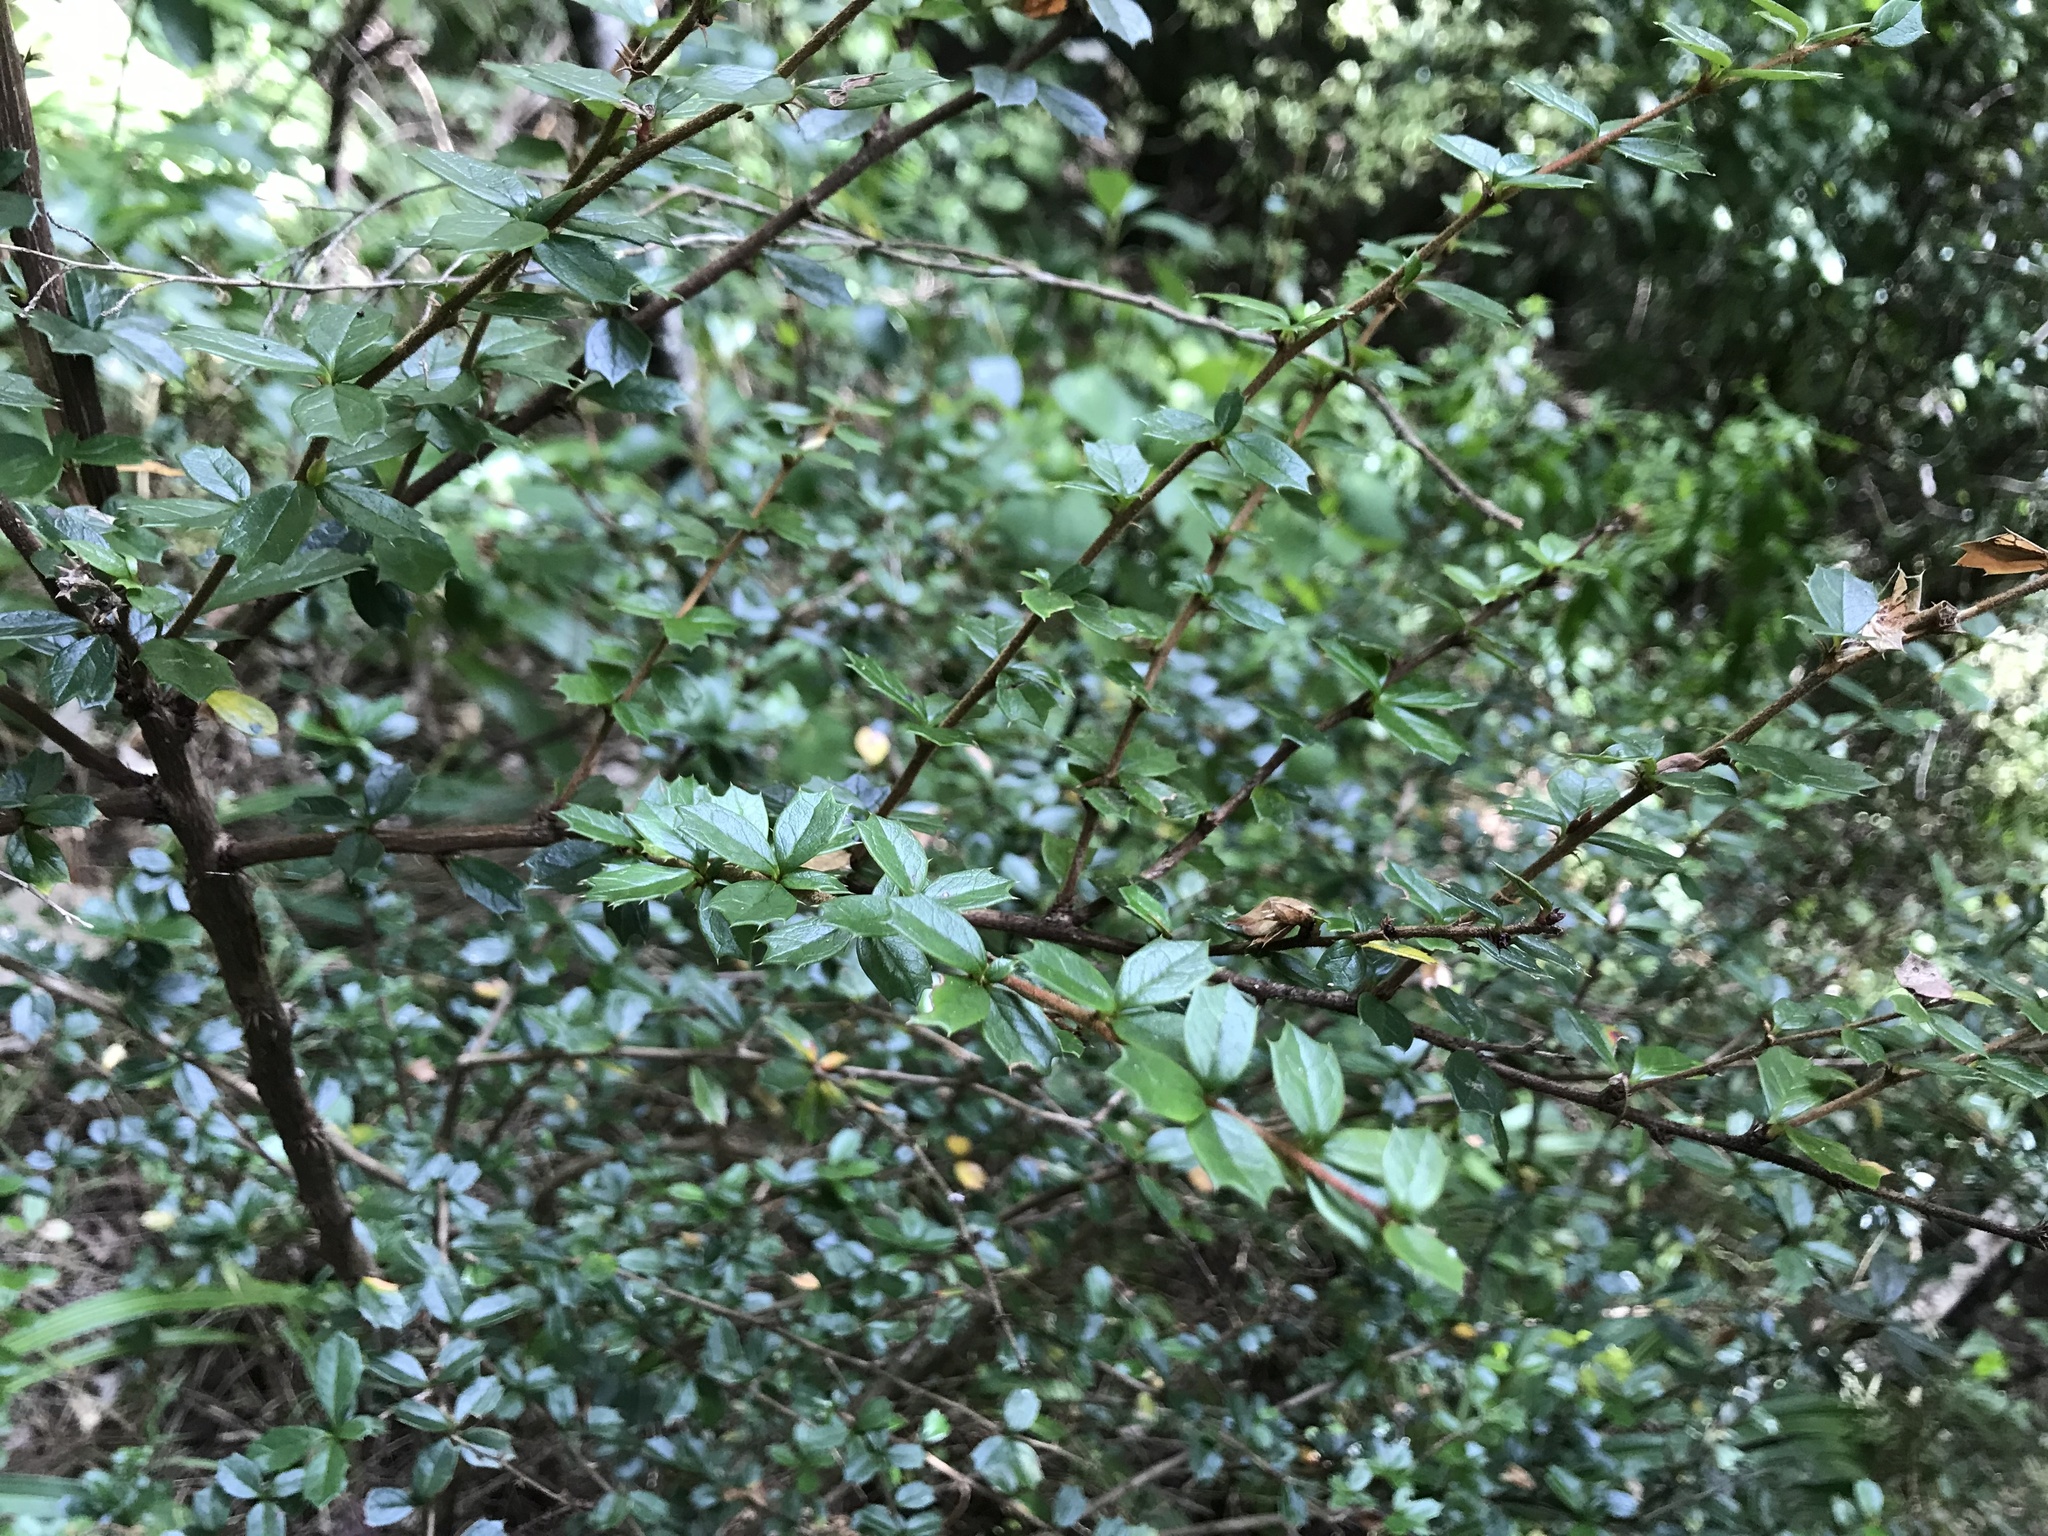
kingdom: Plantae
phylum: Tracheophyta
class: Magnoliopsida
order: Ranunculales
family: Berberidaceae
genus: Berberis
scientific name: Berberis darwinii
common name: Darwin's barberry
